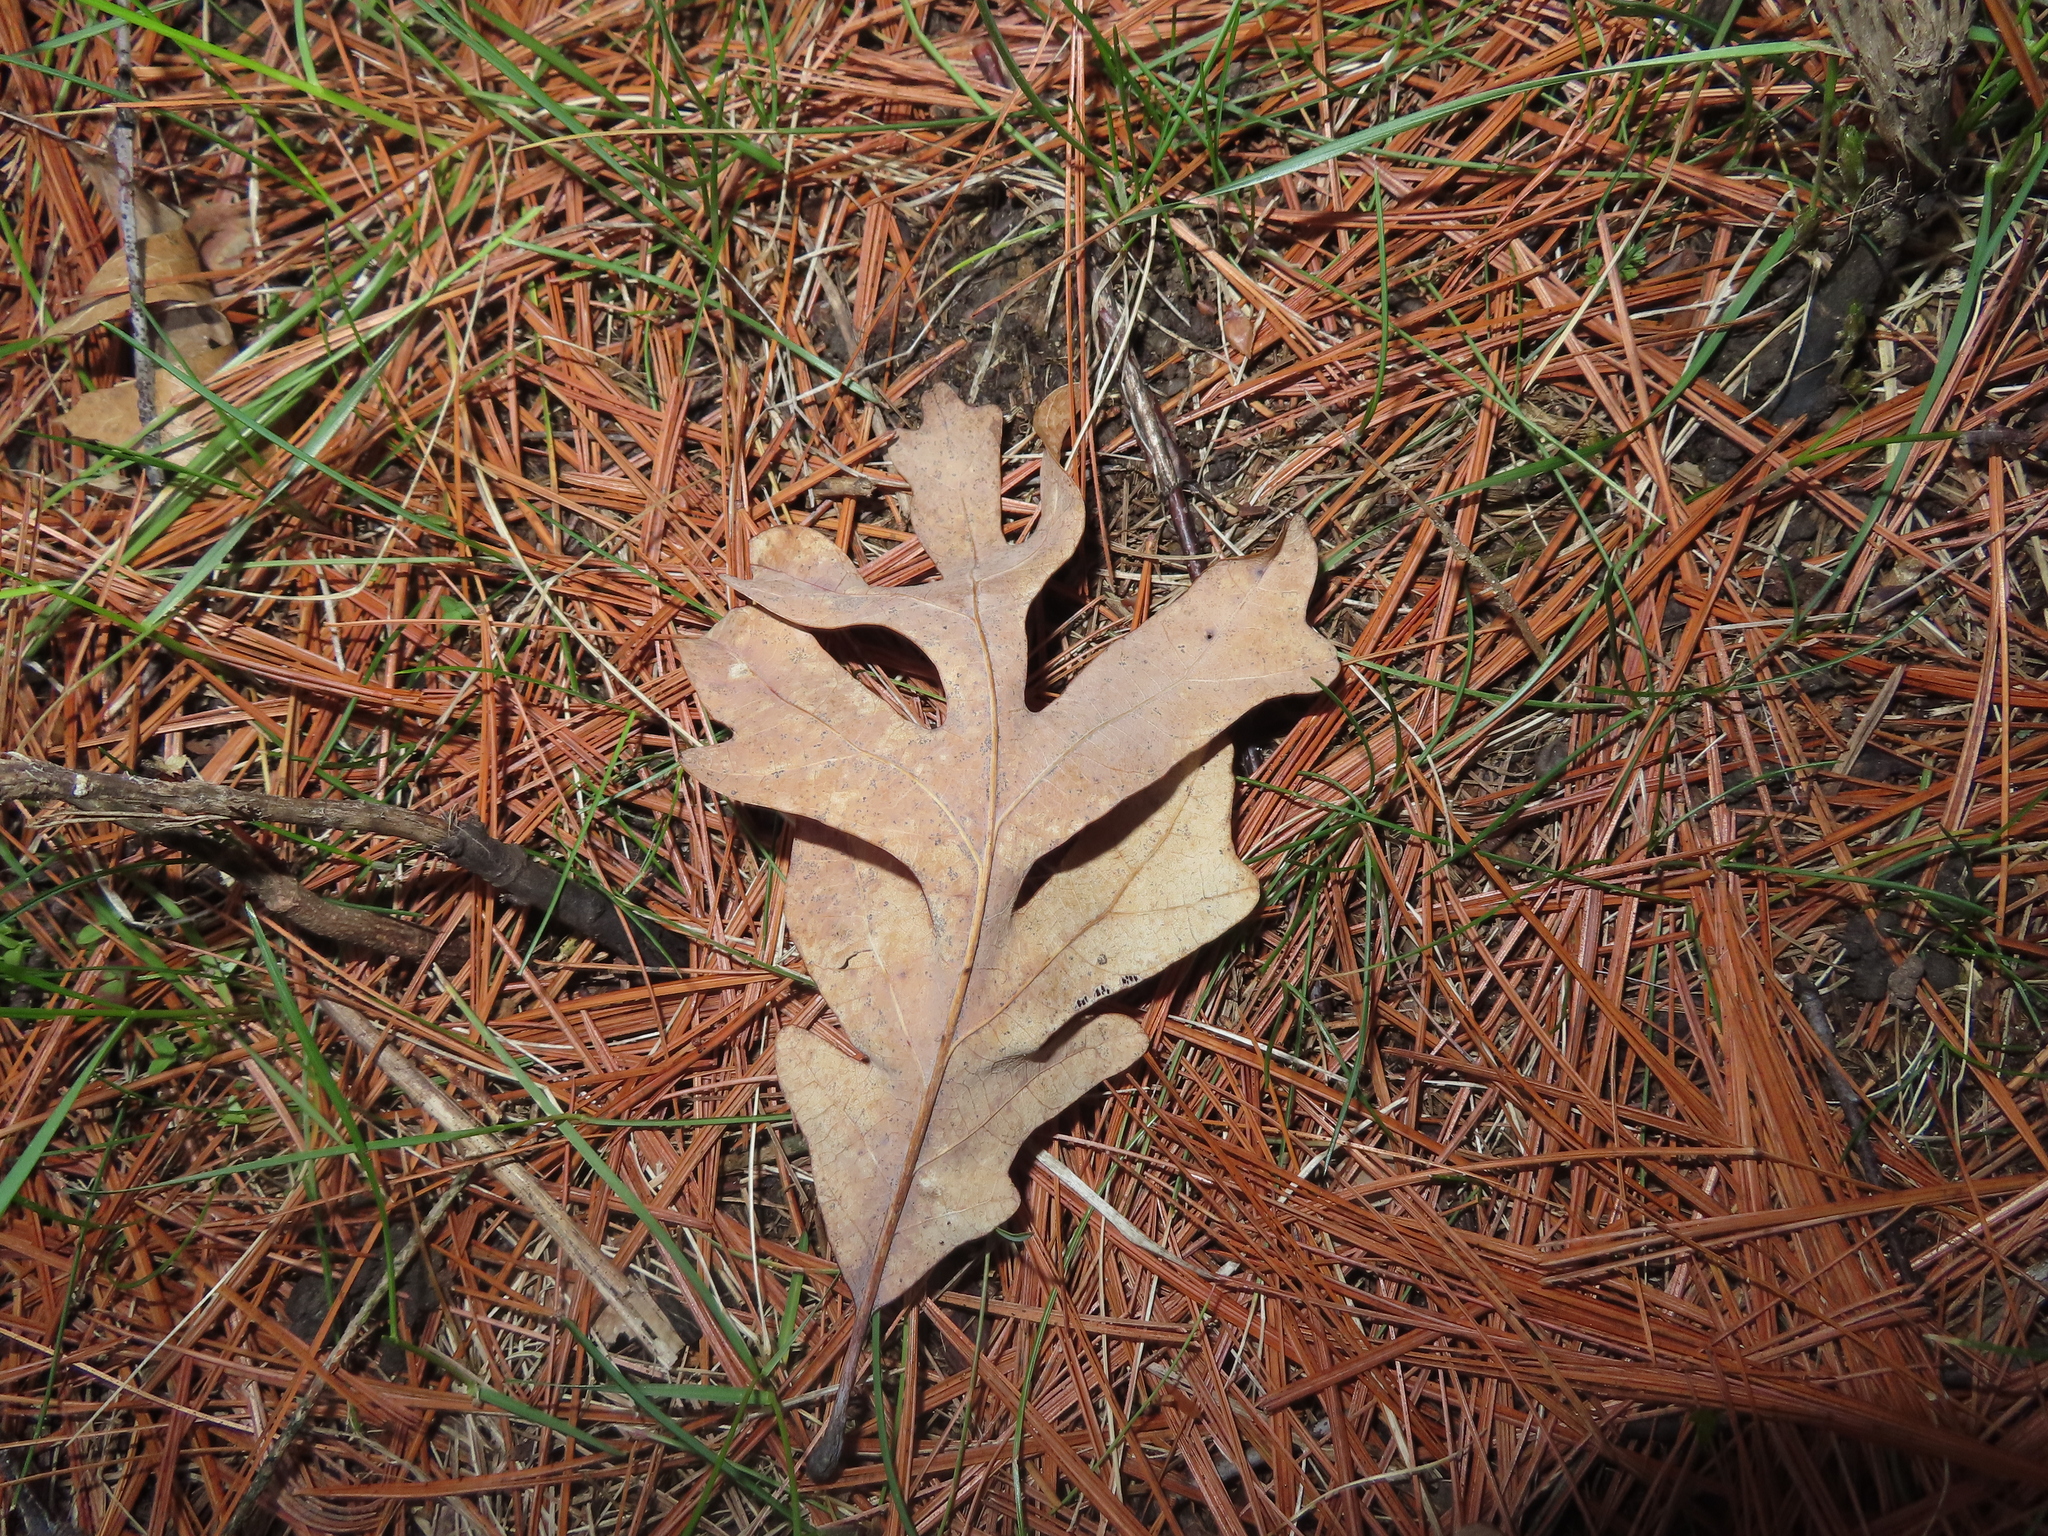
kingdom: Plantae
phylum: Tracheophyta
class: Magnoliopsida
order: Fagales
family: Fagaceae
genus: Quercus
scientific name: Quercus alba
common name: White oak
